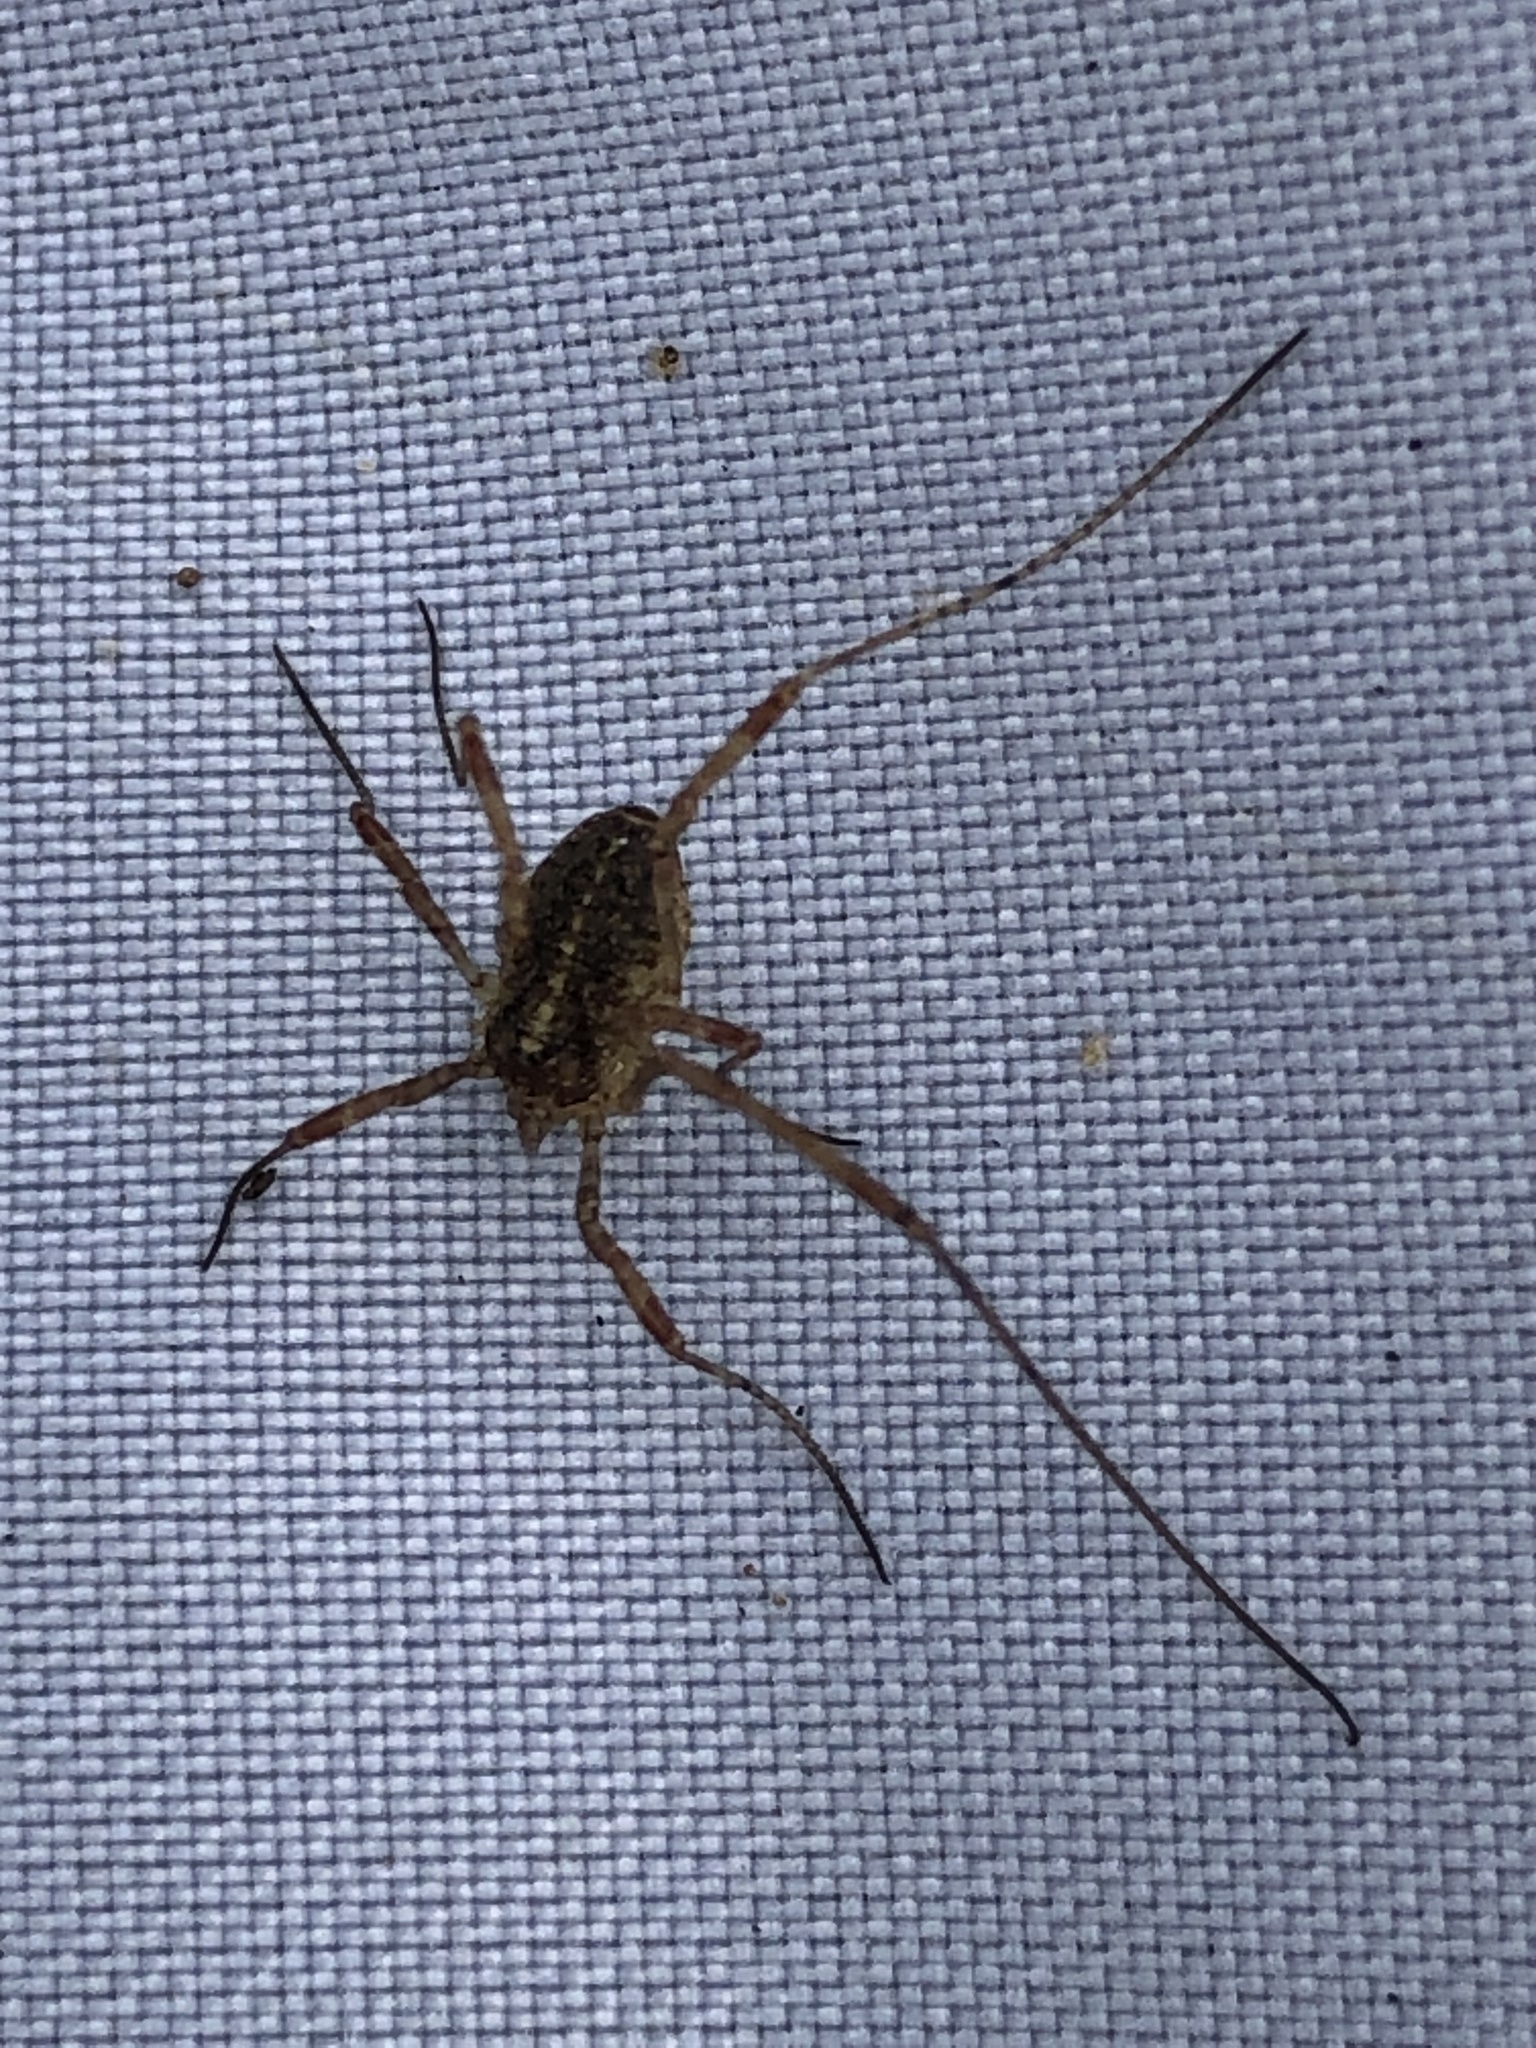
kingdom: Animalia
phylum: Arthropoda
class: Arachnida
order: Opiliones
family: Phalangiidae
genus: Paroligolophus
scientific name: Paroligolophus agrestis
